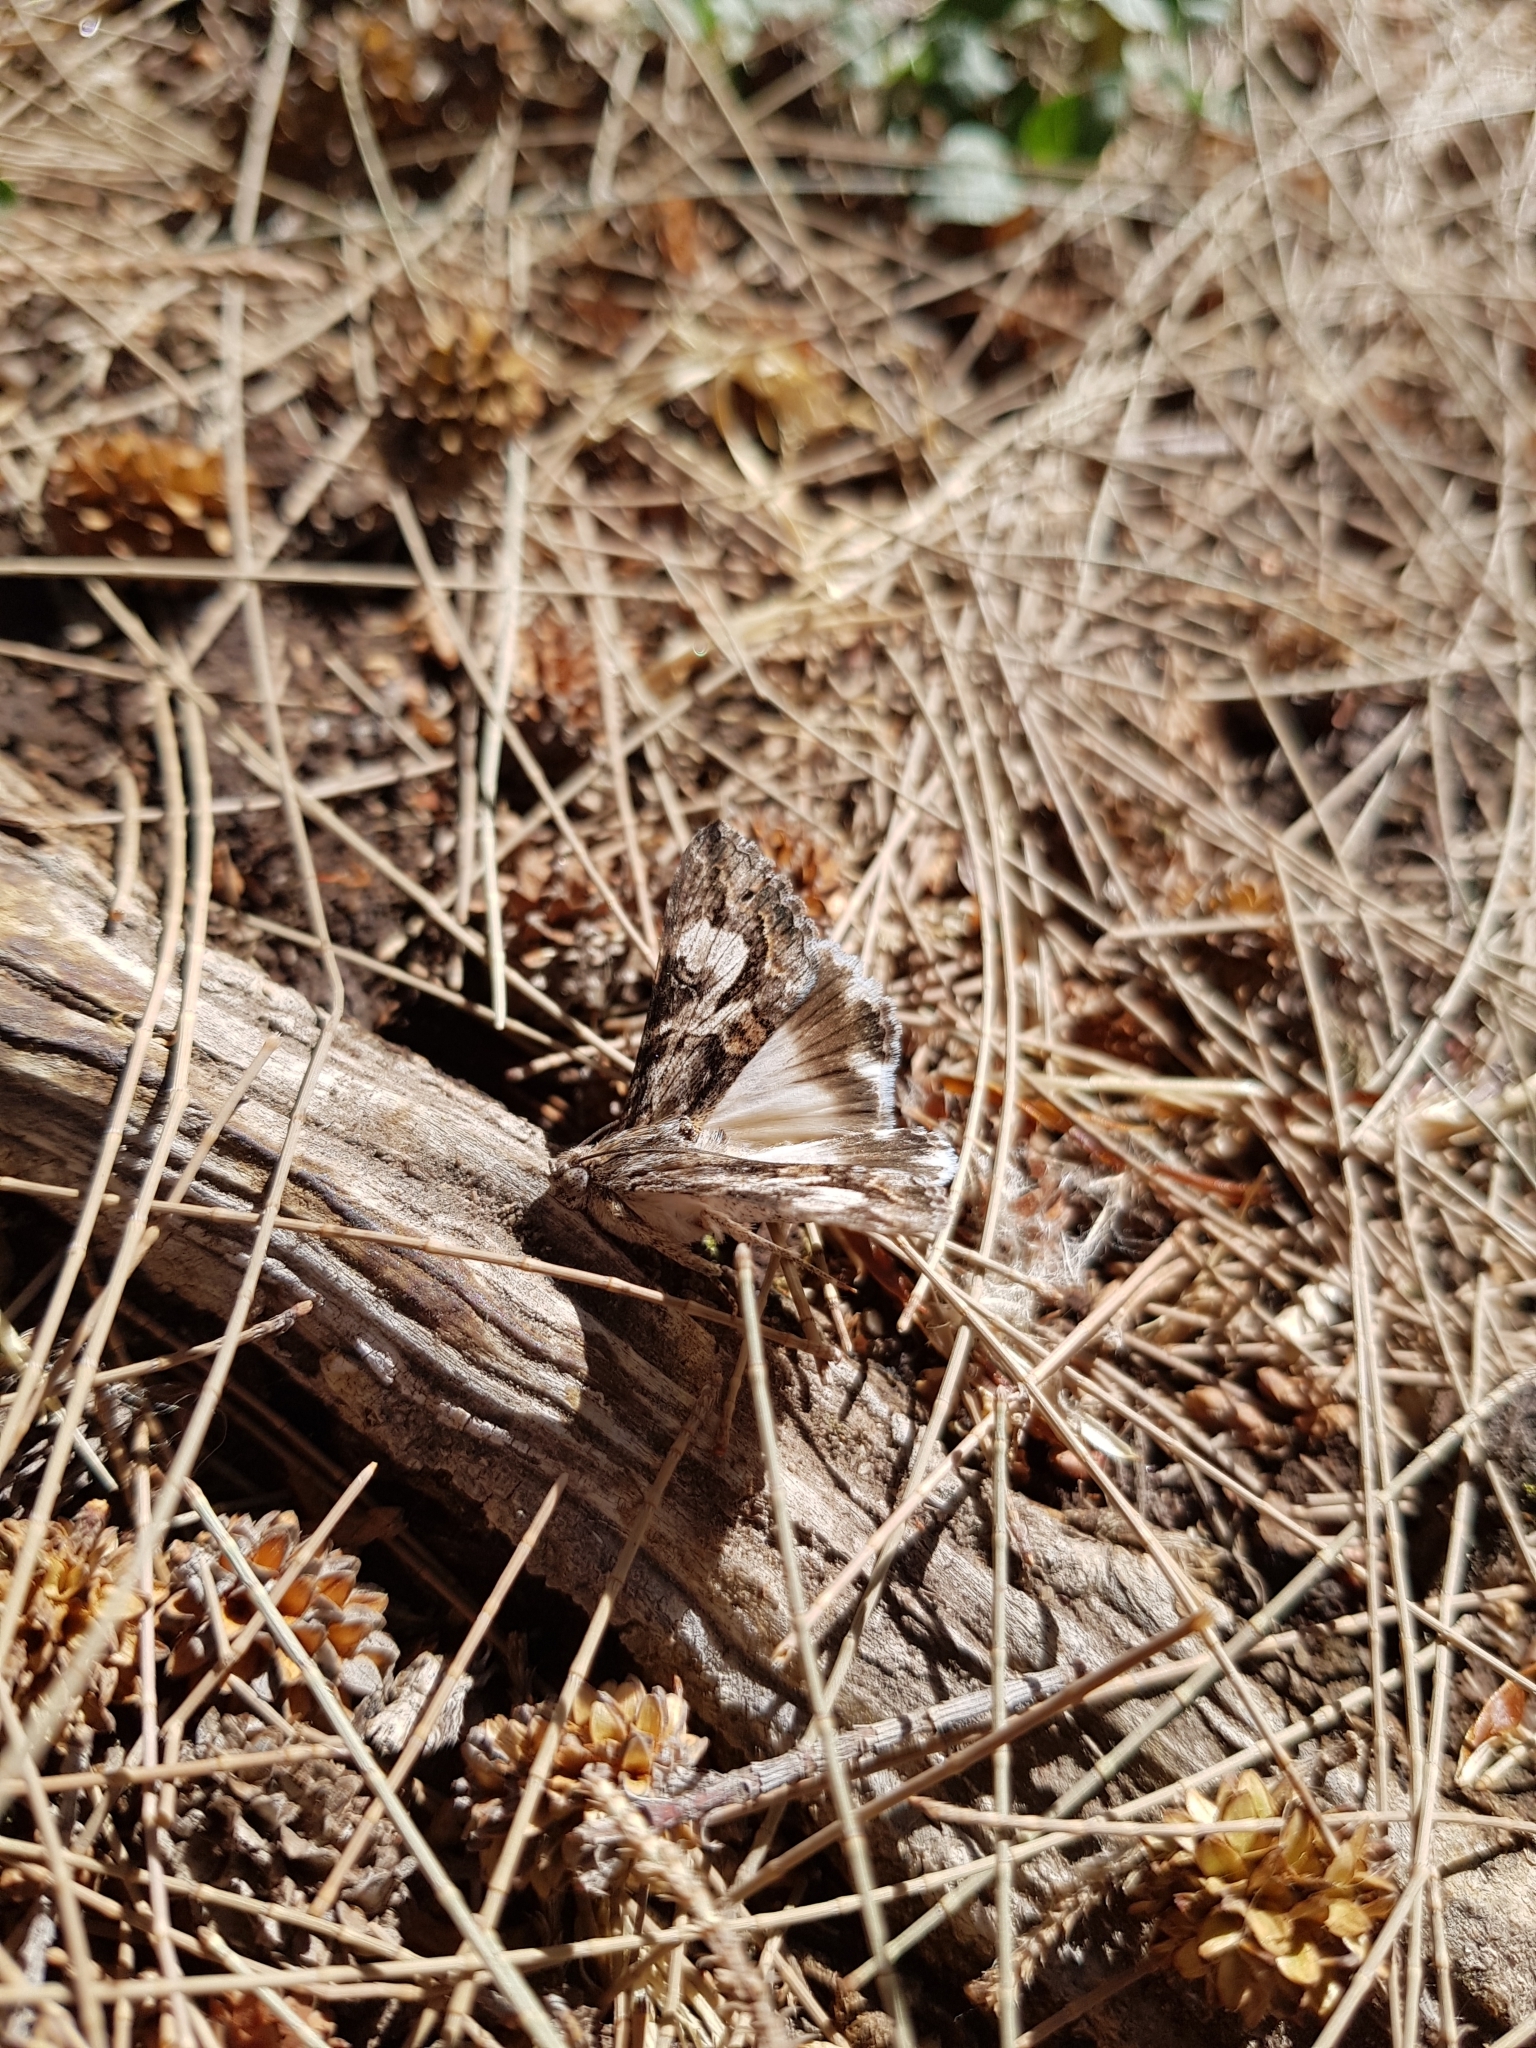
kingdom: Animalia
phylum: Arthropoda
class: Insecta
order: Lepidoptera
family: Erebidae
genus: Melipotis
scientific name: Melipotis jucunda
